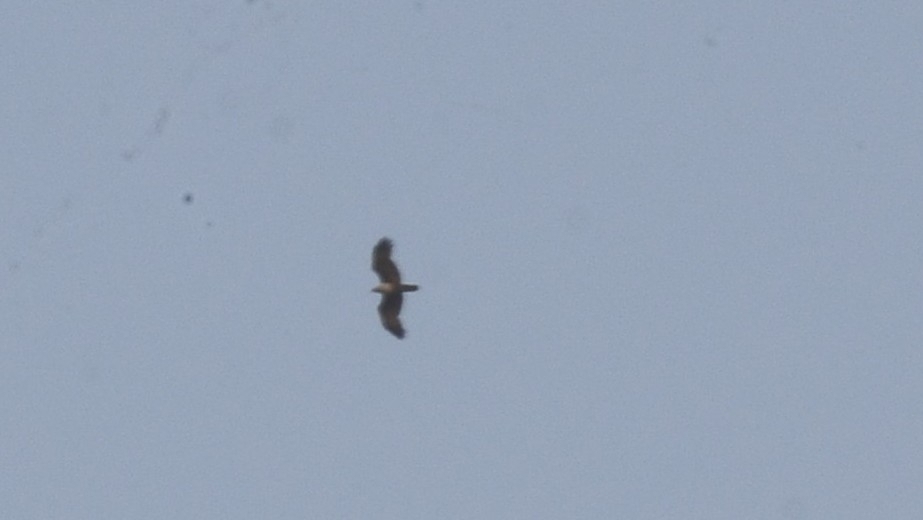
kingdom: Animalia
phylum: Chordata
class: Aves
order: Accipitriformes
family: Accipitridae
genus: Haliastur
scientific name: Haliastur indus
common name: Brahminy kite
